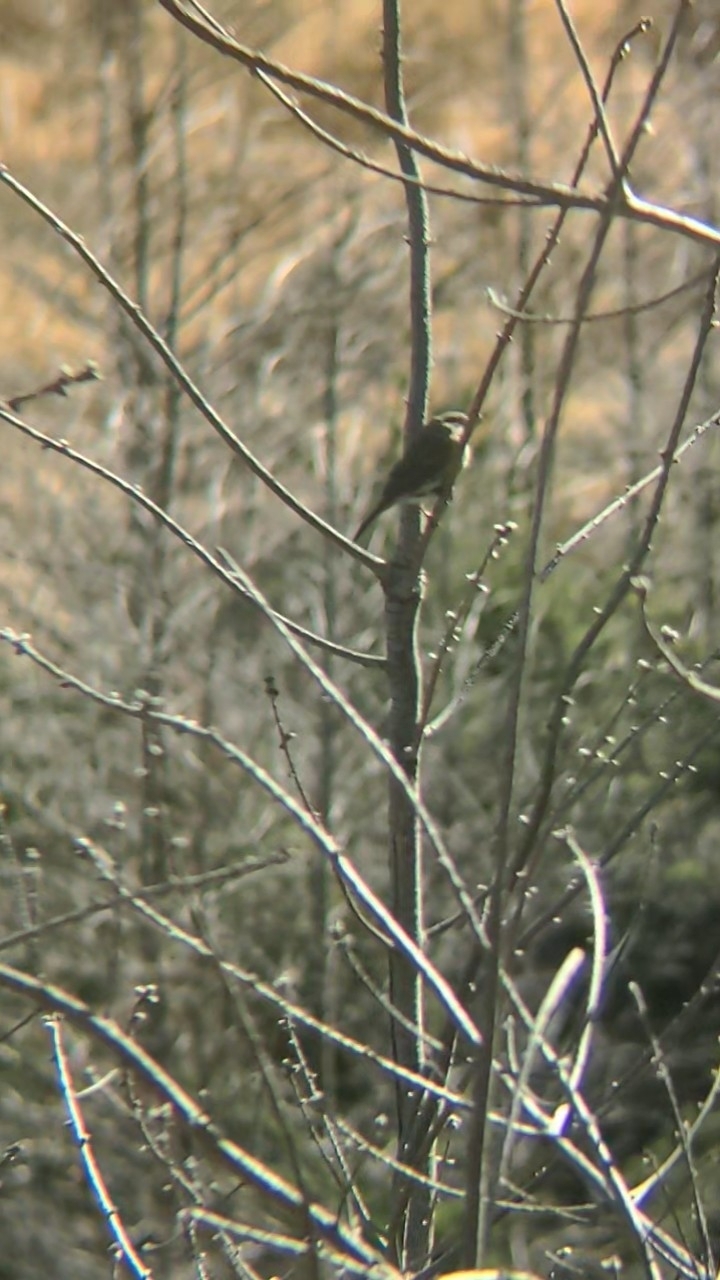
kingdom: Animalia
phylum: Chordata
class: Aves
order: Passeriformes
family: Prunellidae
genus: Prunella
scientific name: Prunella modularis
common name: Dunnock
